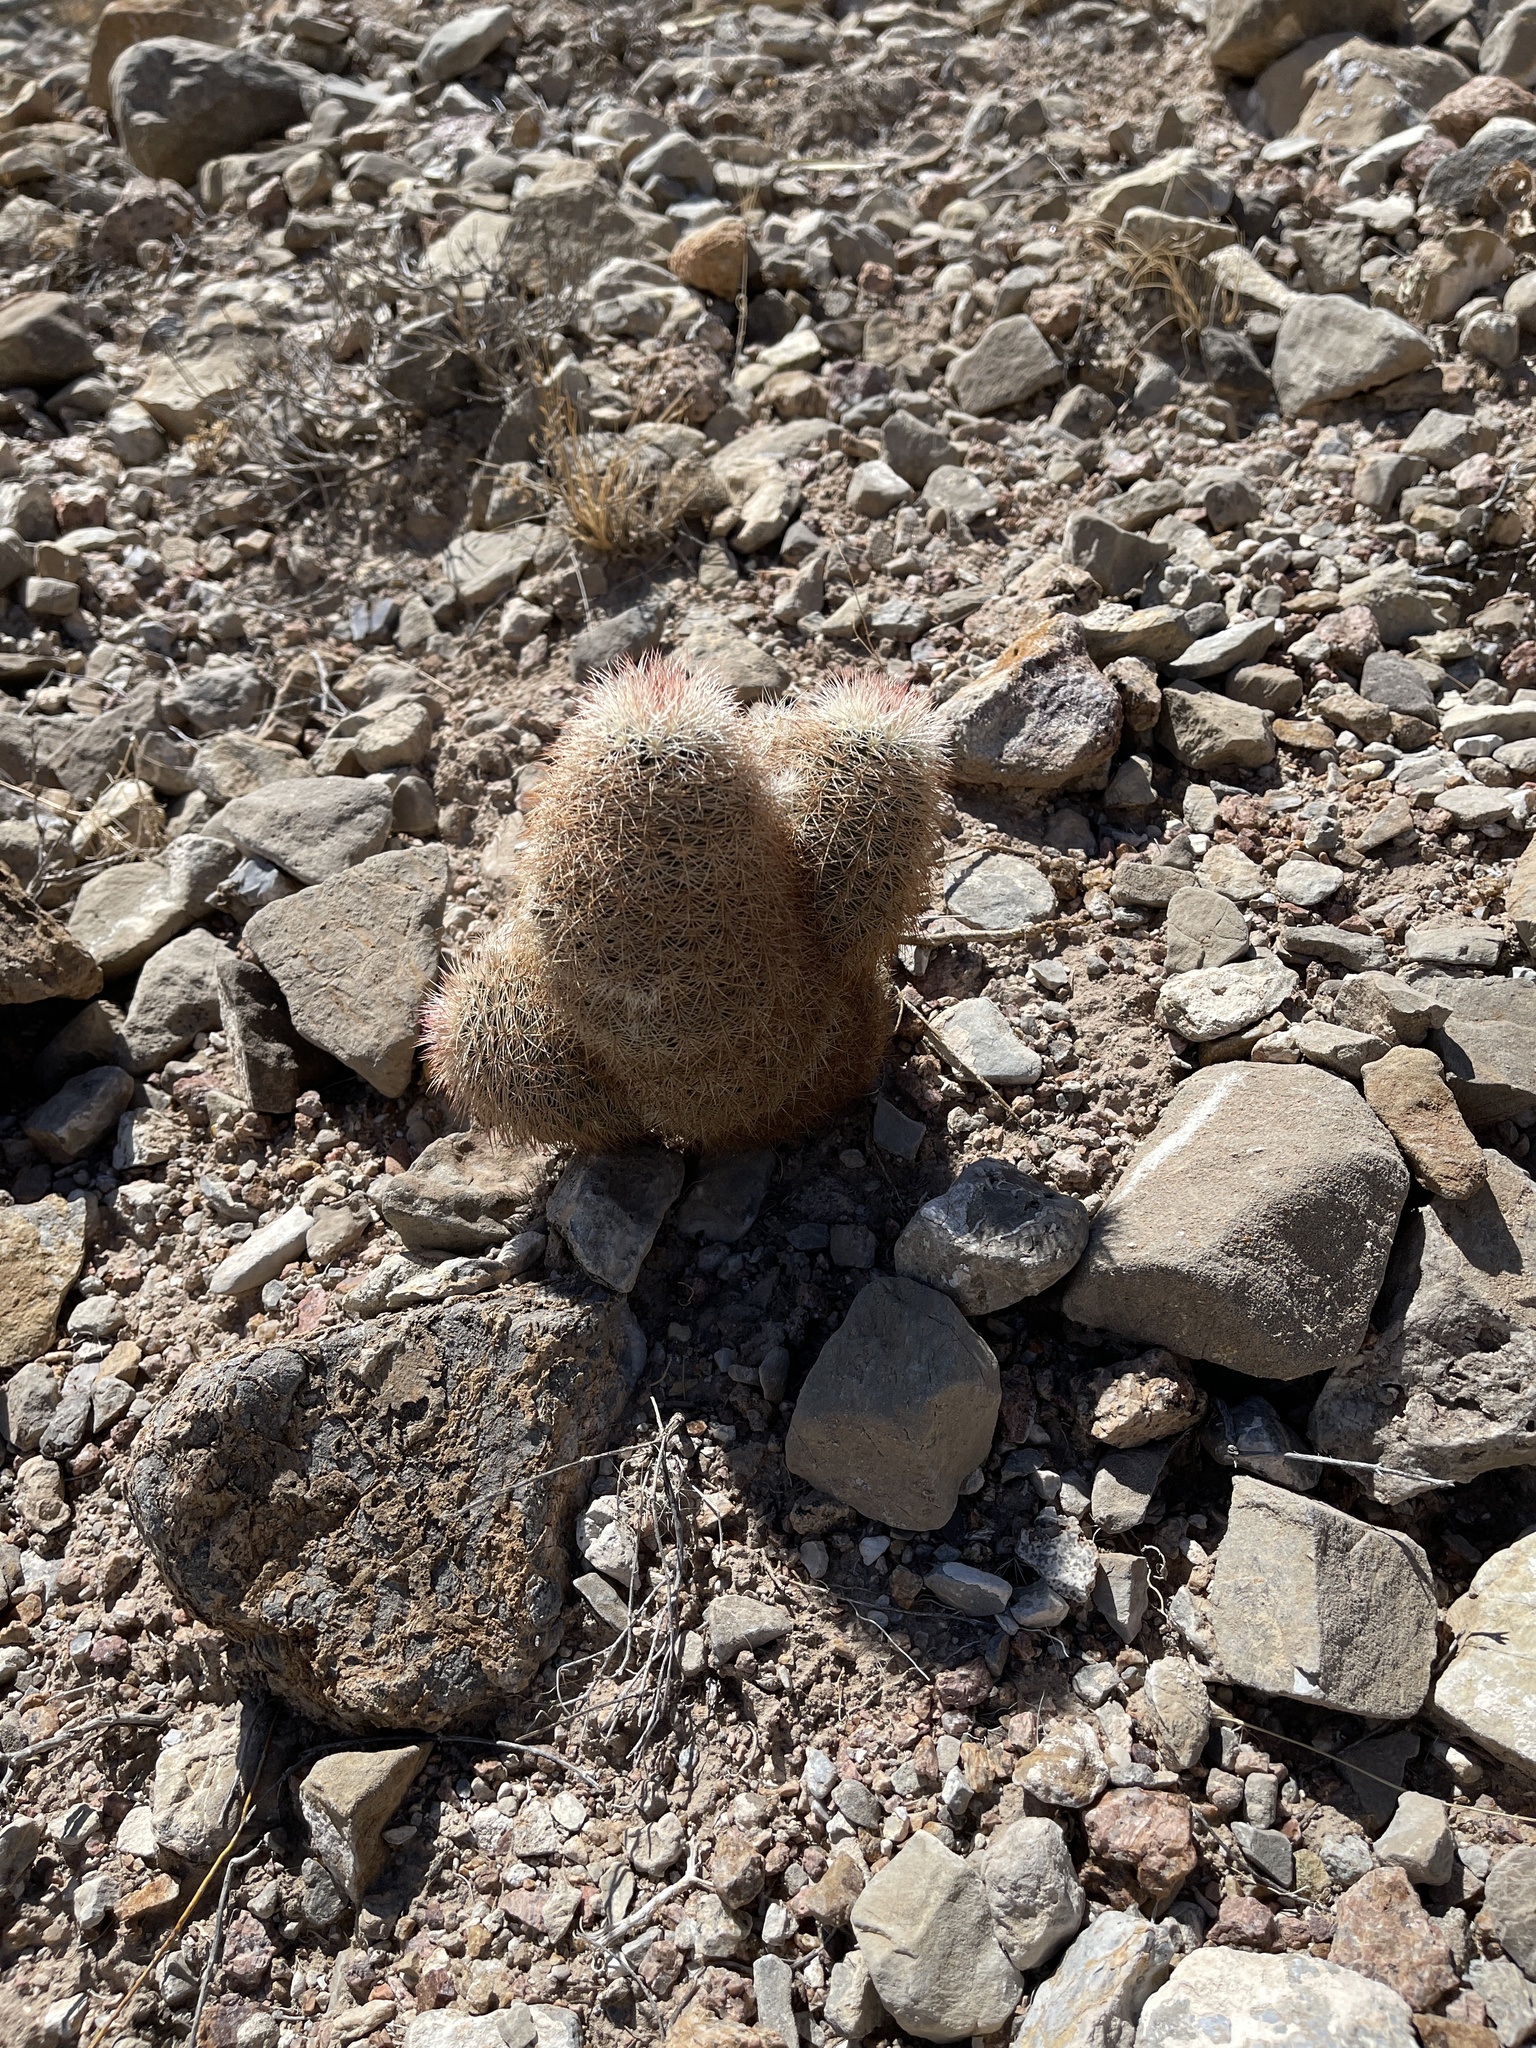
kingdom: Plantae
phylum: Tracheophyta
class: Magnoliopsida
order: Caryophyllales
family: Cactaceae
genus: Echinocereus
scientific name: Echinocereus dasyacanthus
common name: Spiny hedgehog cactus
